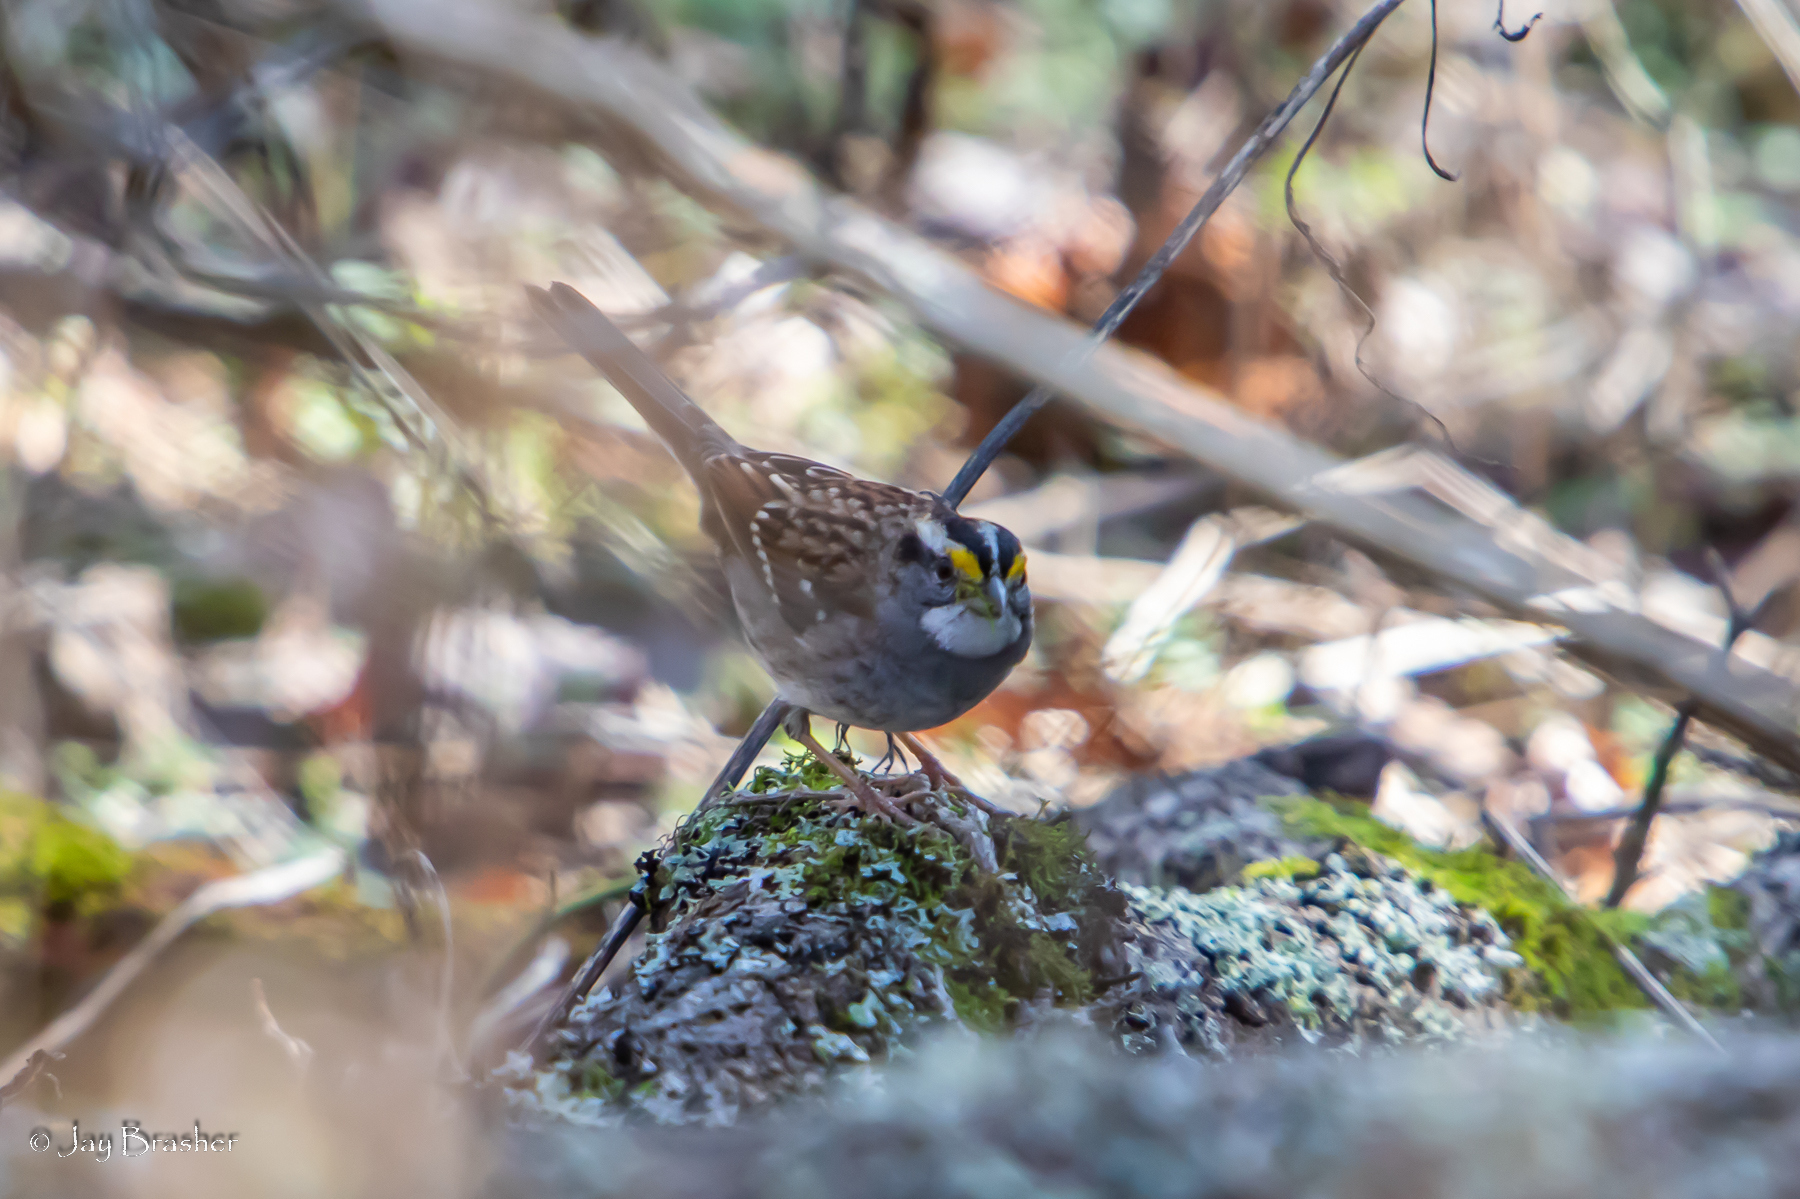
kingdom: Animalia
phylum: Chordata
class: Aves
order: Passeriformes
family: Passerellidae
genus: Zonotrichia
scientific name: Zonotrichia albicollis
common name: White-throated sparrow
